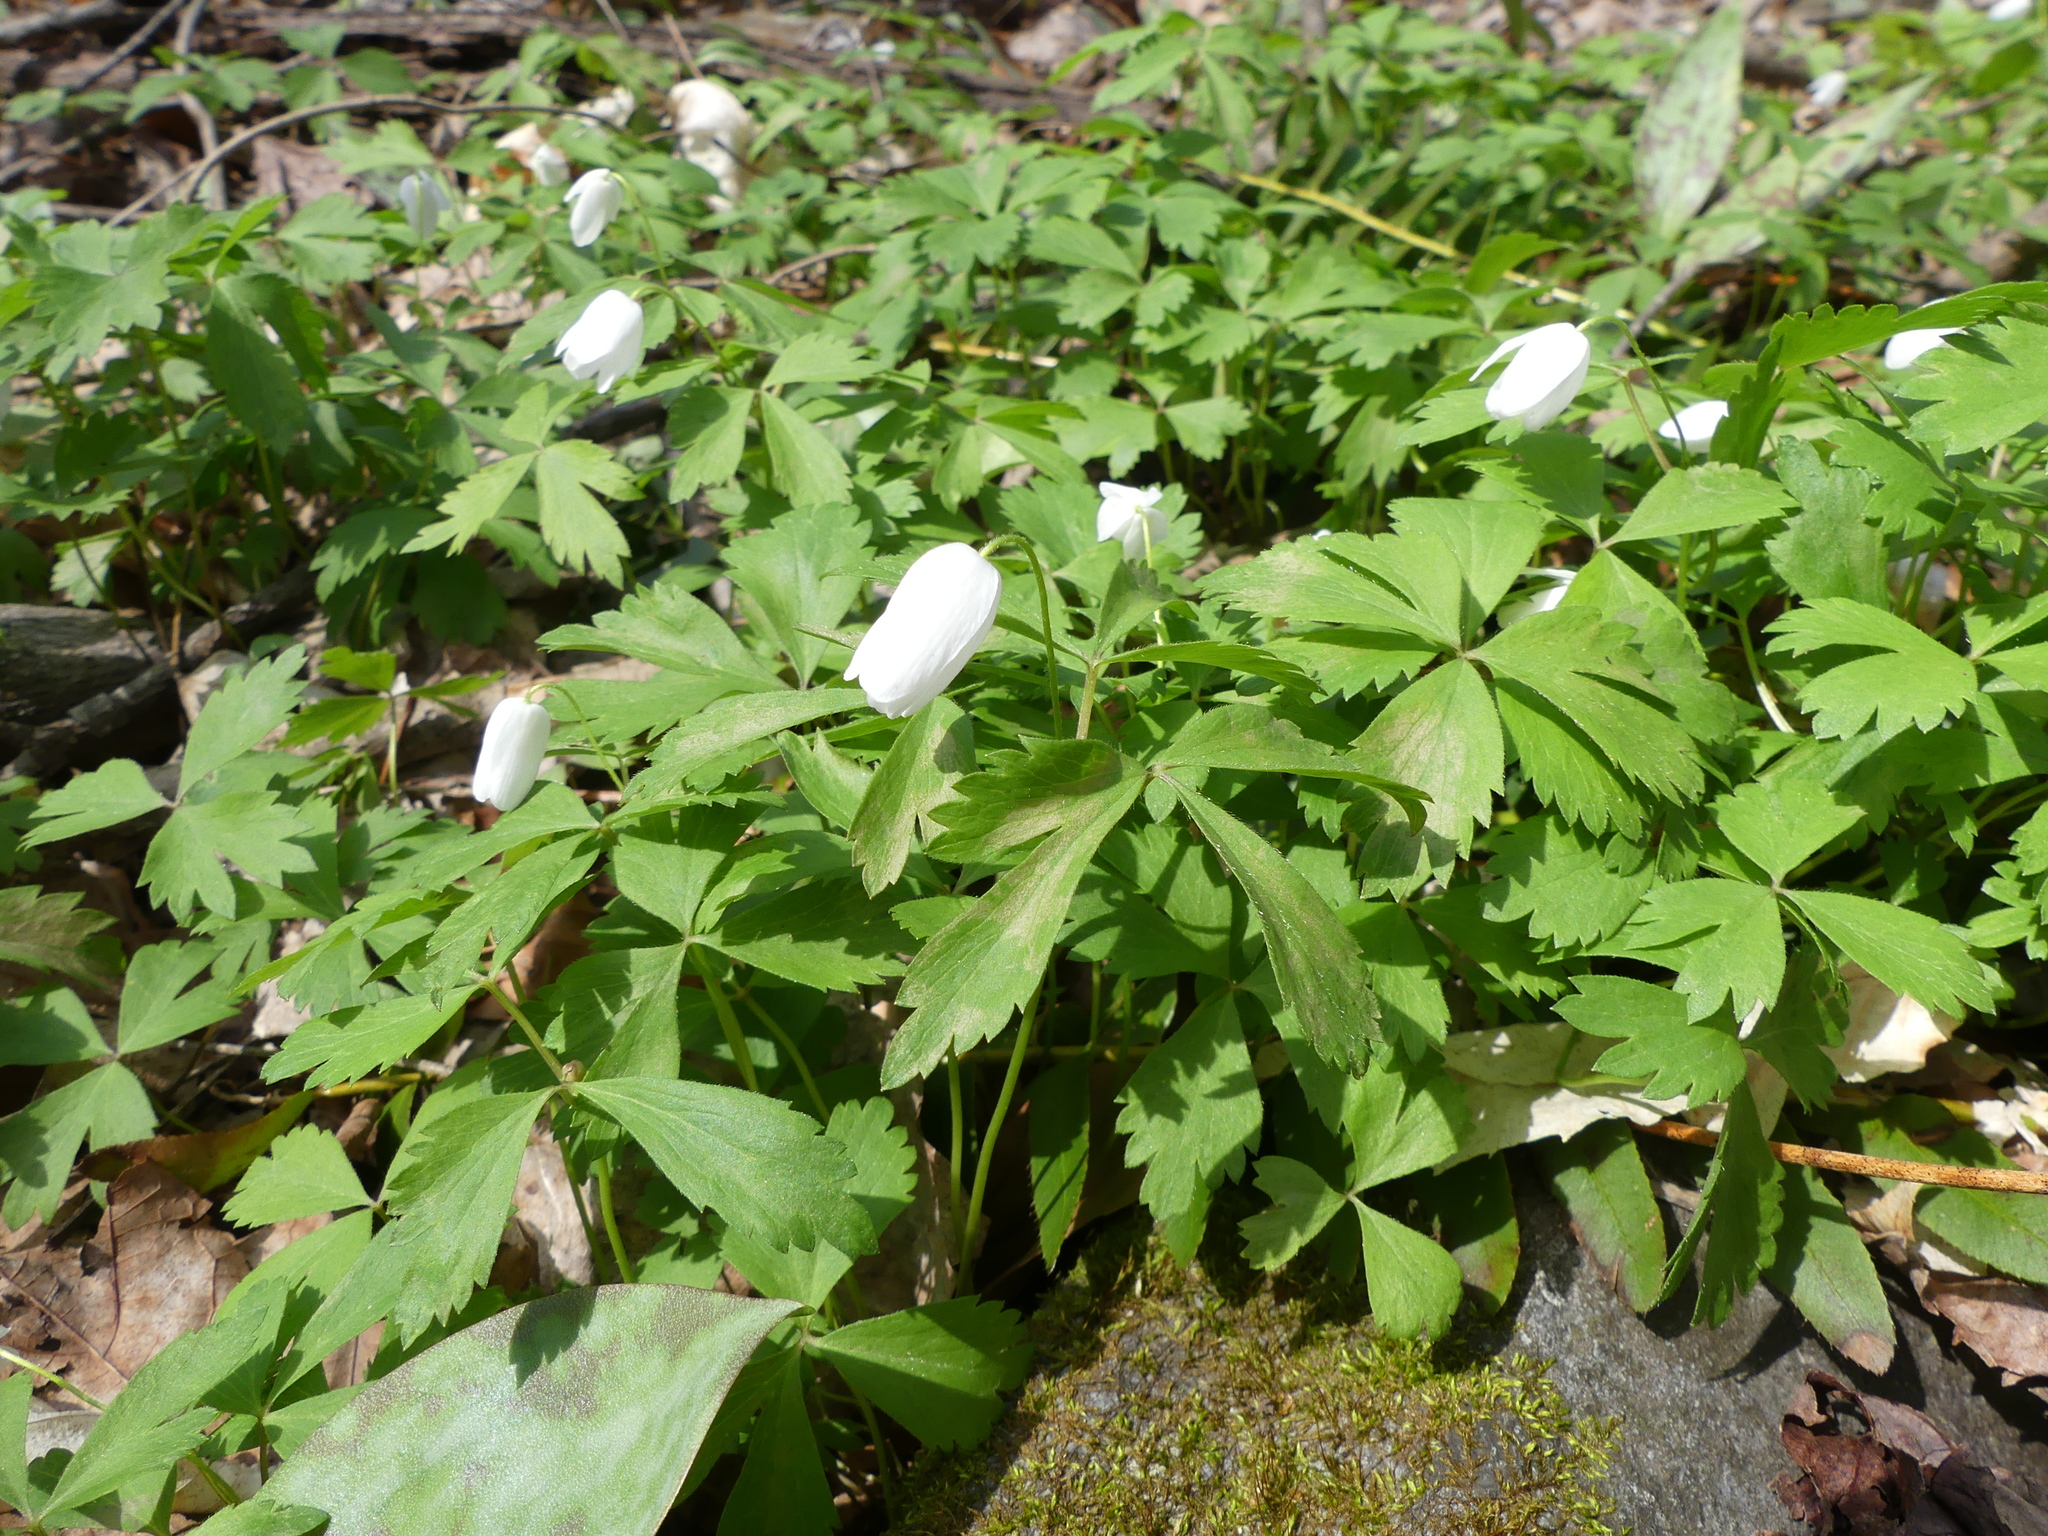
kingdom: Plantae
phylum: Tracheophyta
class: Magnoliopsida
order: Ranunculales
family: Ranunculaceae
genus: Anemone
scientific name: Anemone quinquefolia
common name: Wood anemone
